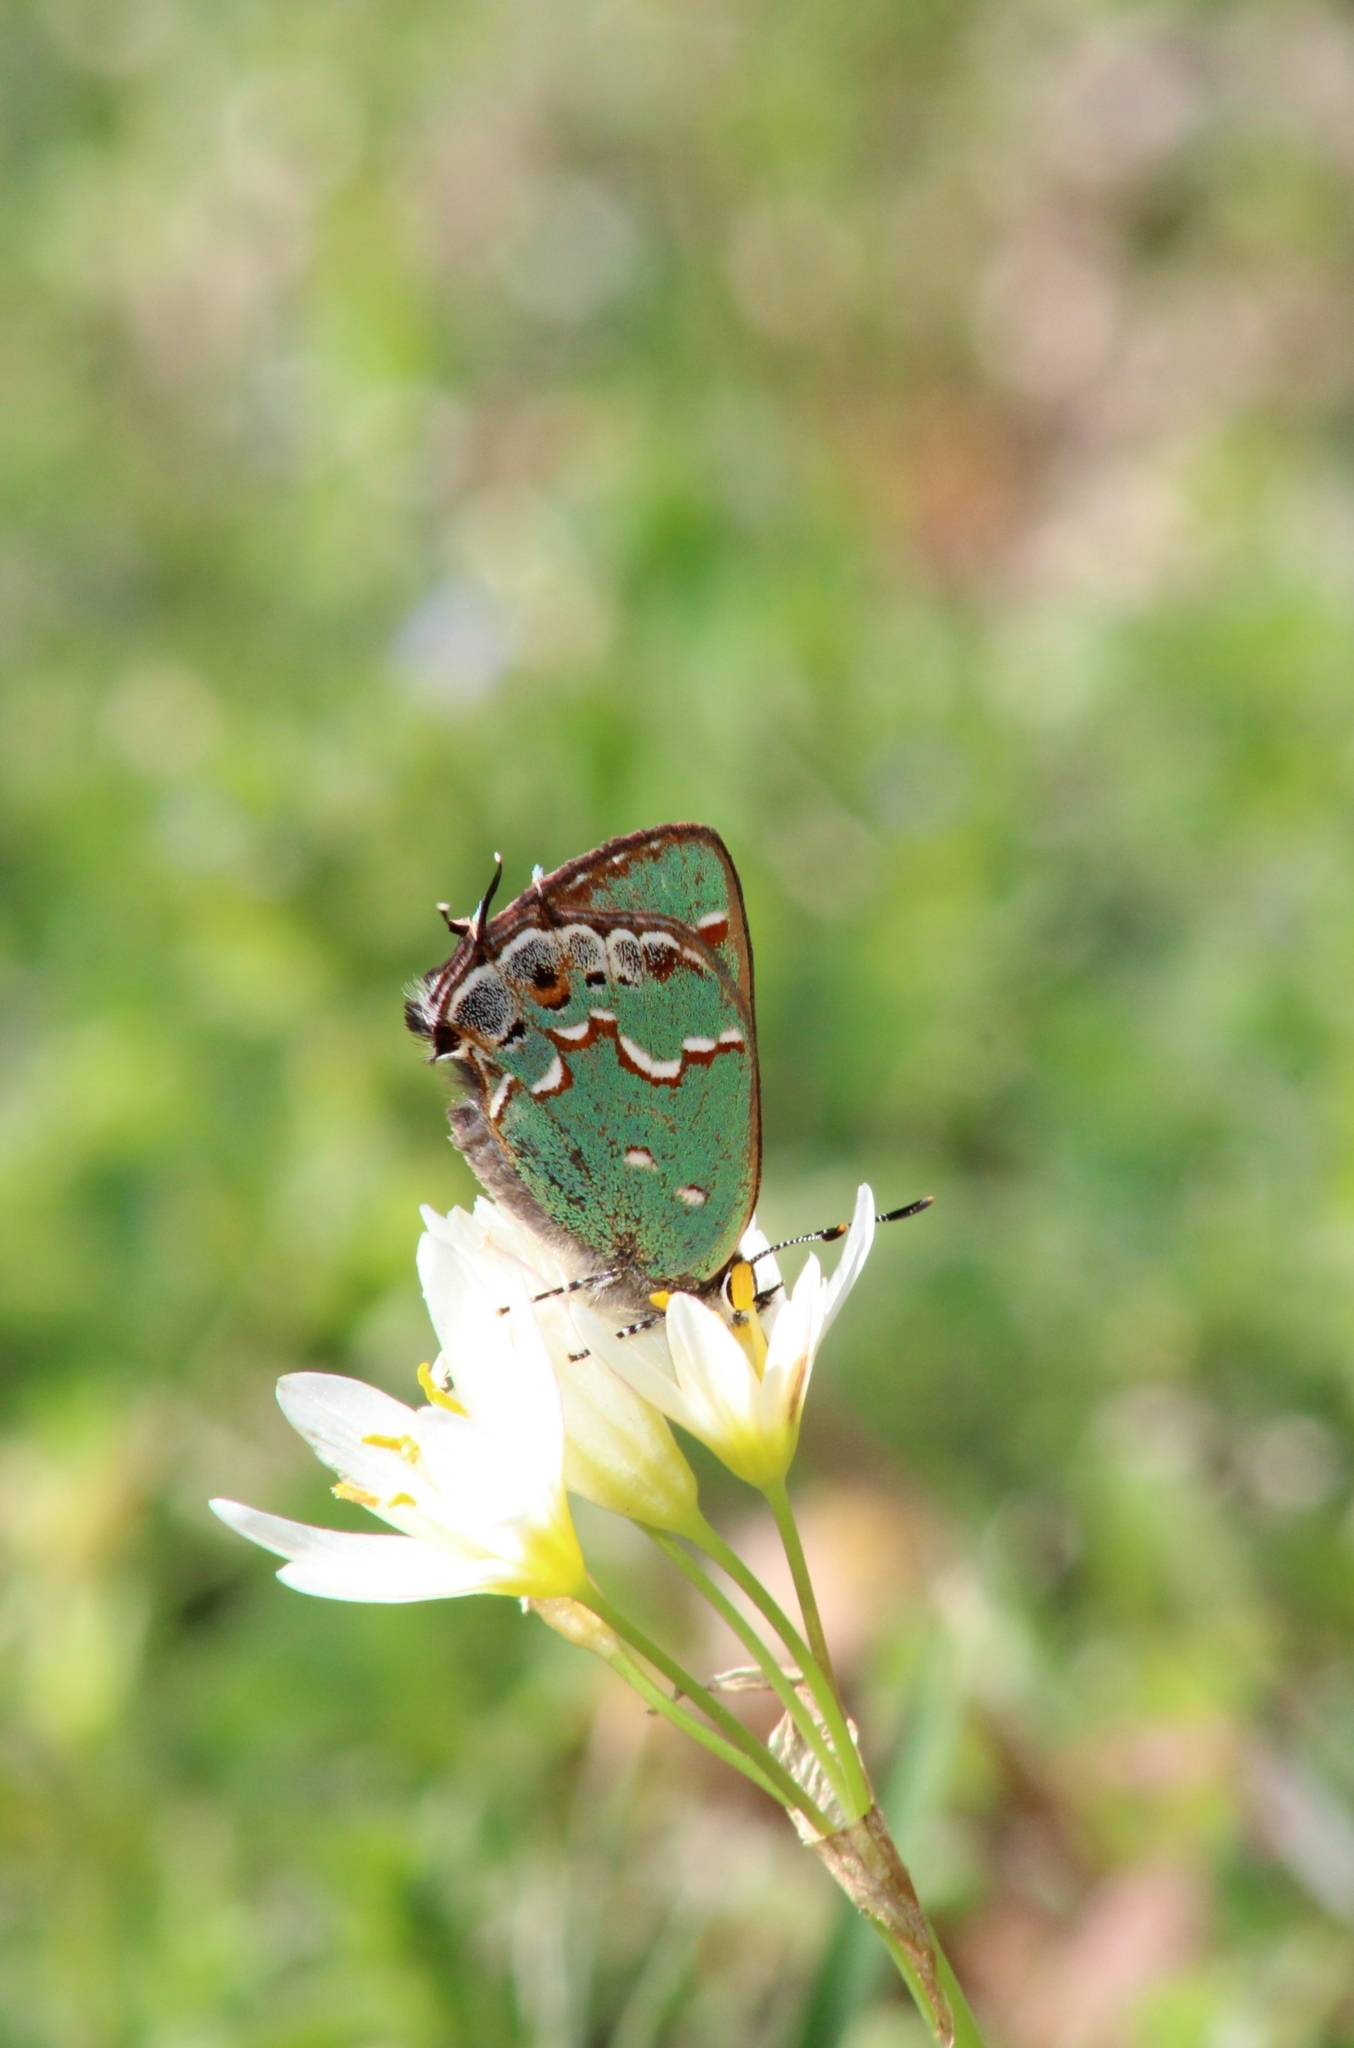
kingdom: Animalia
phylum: Arthropoda
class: Insecta
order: Lepidoptera
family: Lycaenidae
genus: Mitoura
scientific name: Mitoura gryneus
